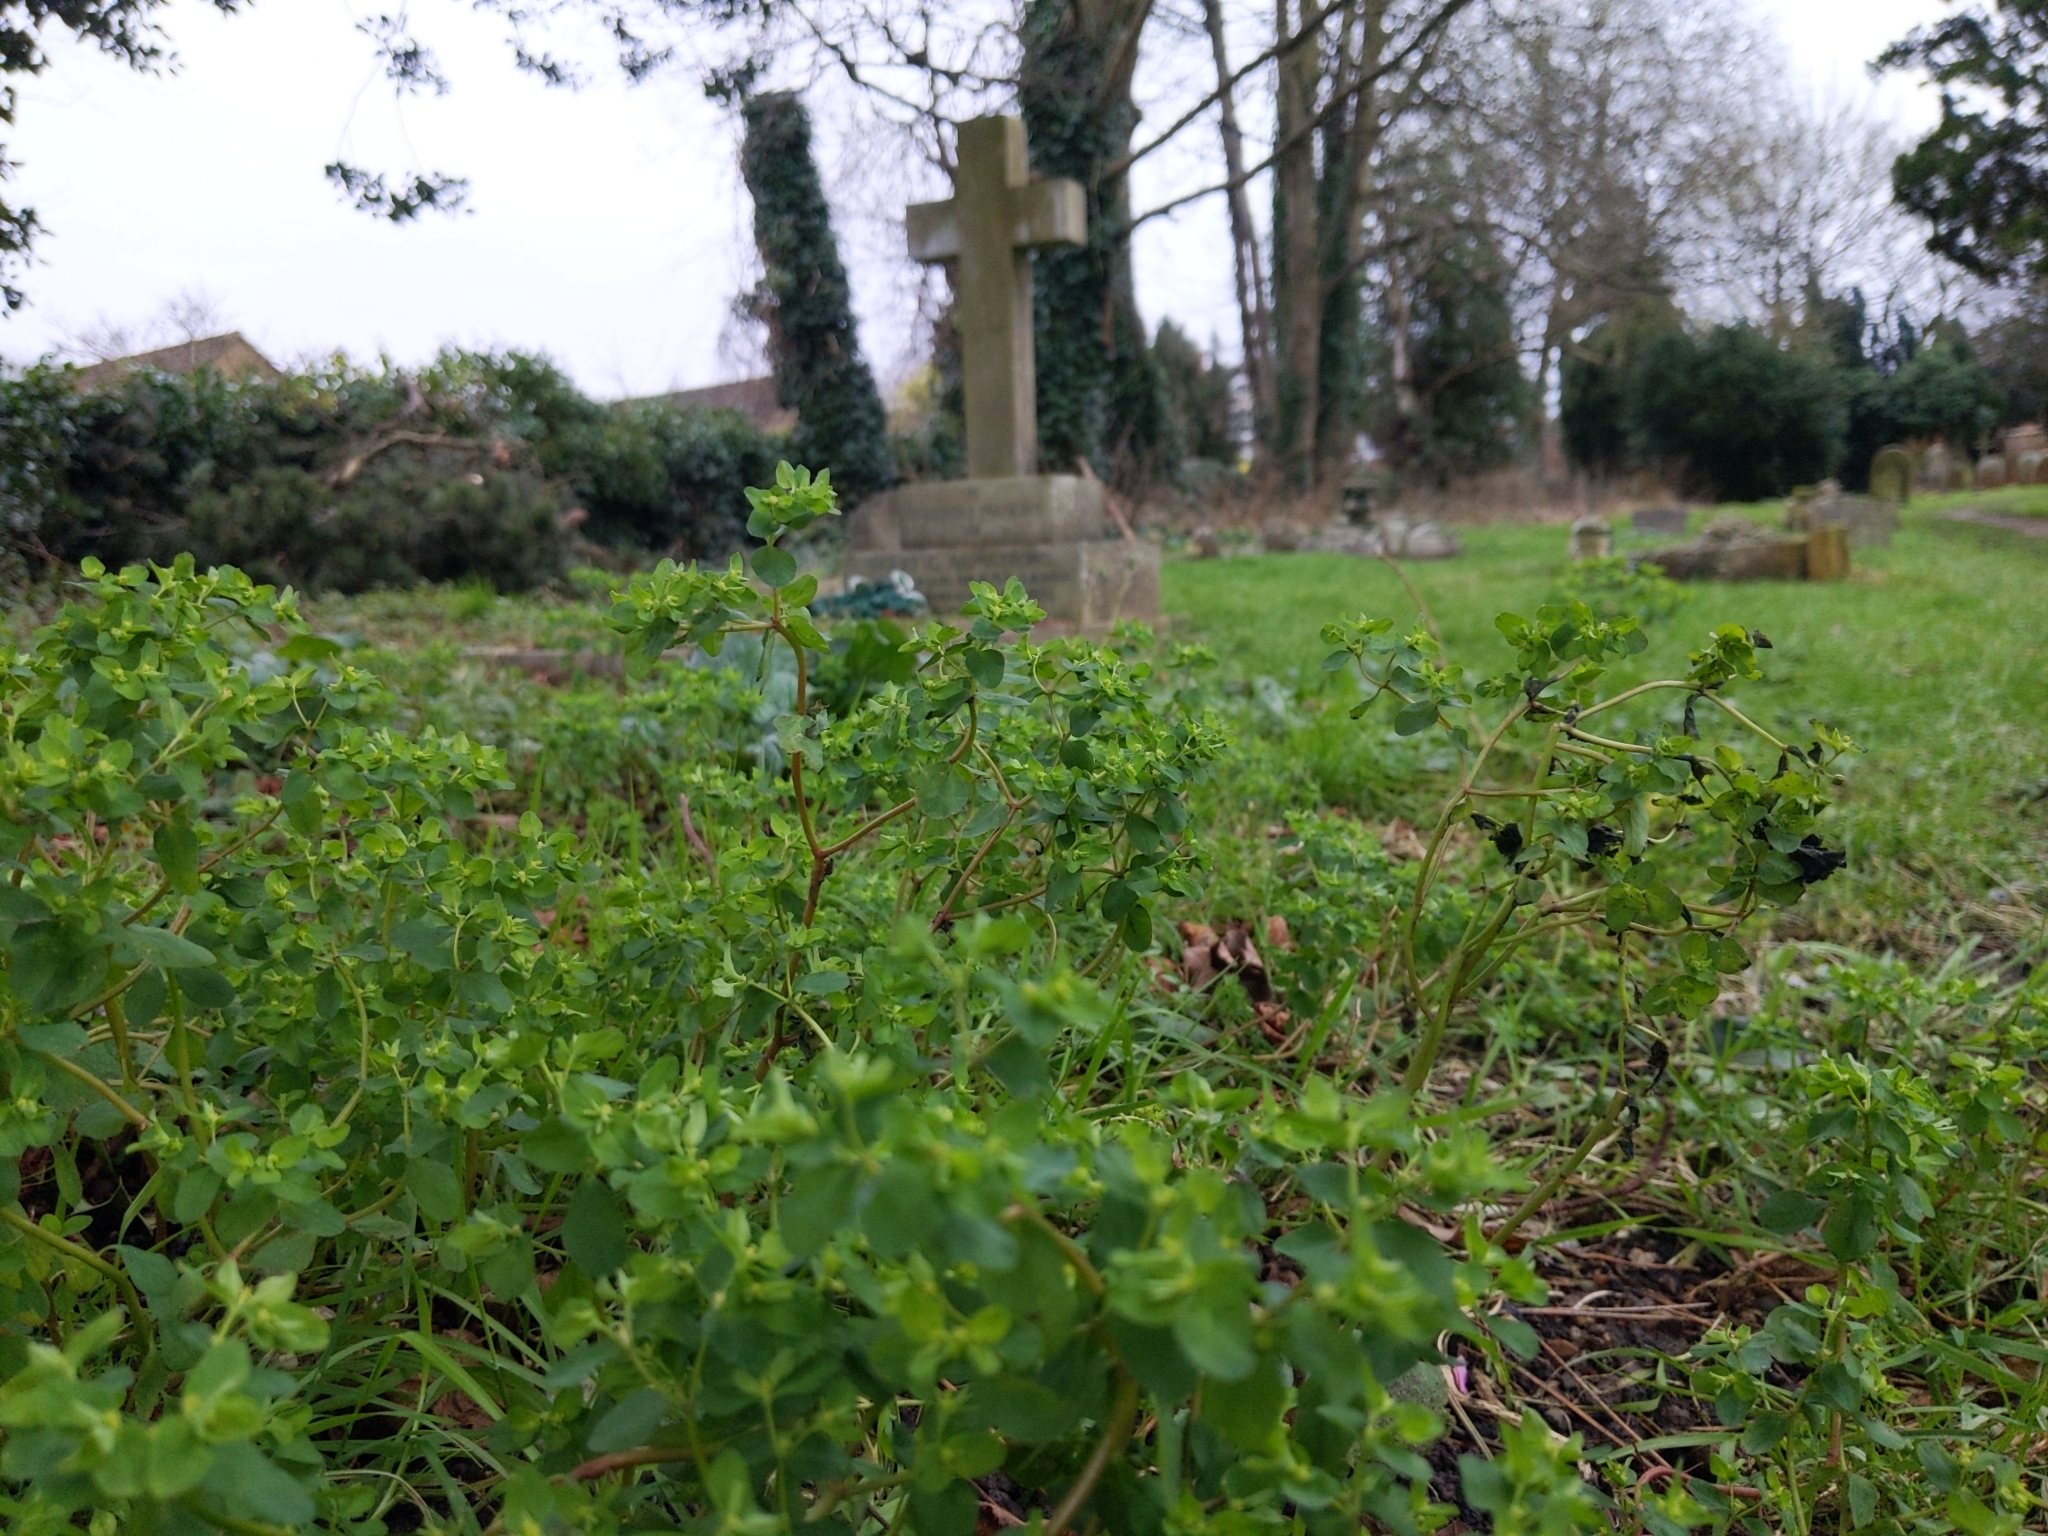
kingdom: Plantae
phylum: Tracheophyta
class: Magnoliopsida
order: Malpighiales
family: Euphorbiaceae
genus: Euphorbia
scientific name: Euphorbia peplus
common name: Petty spurge
